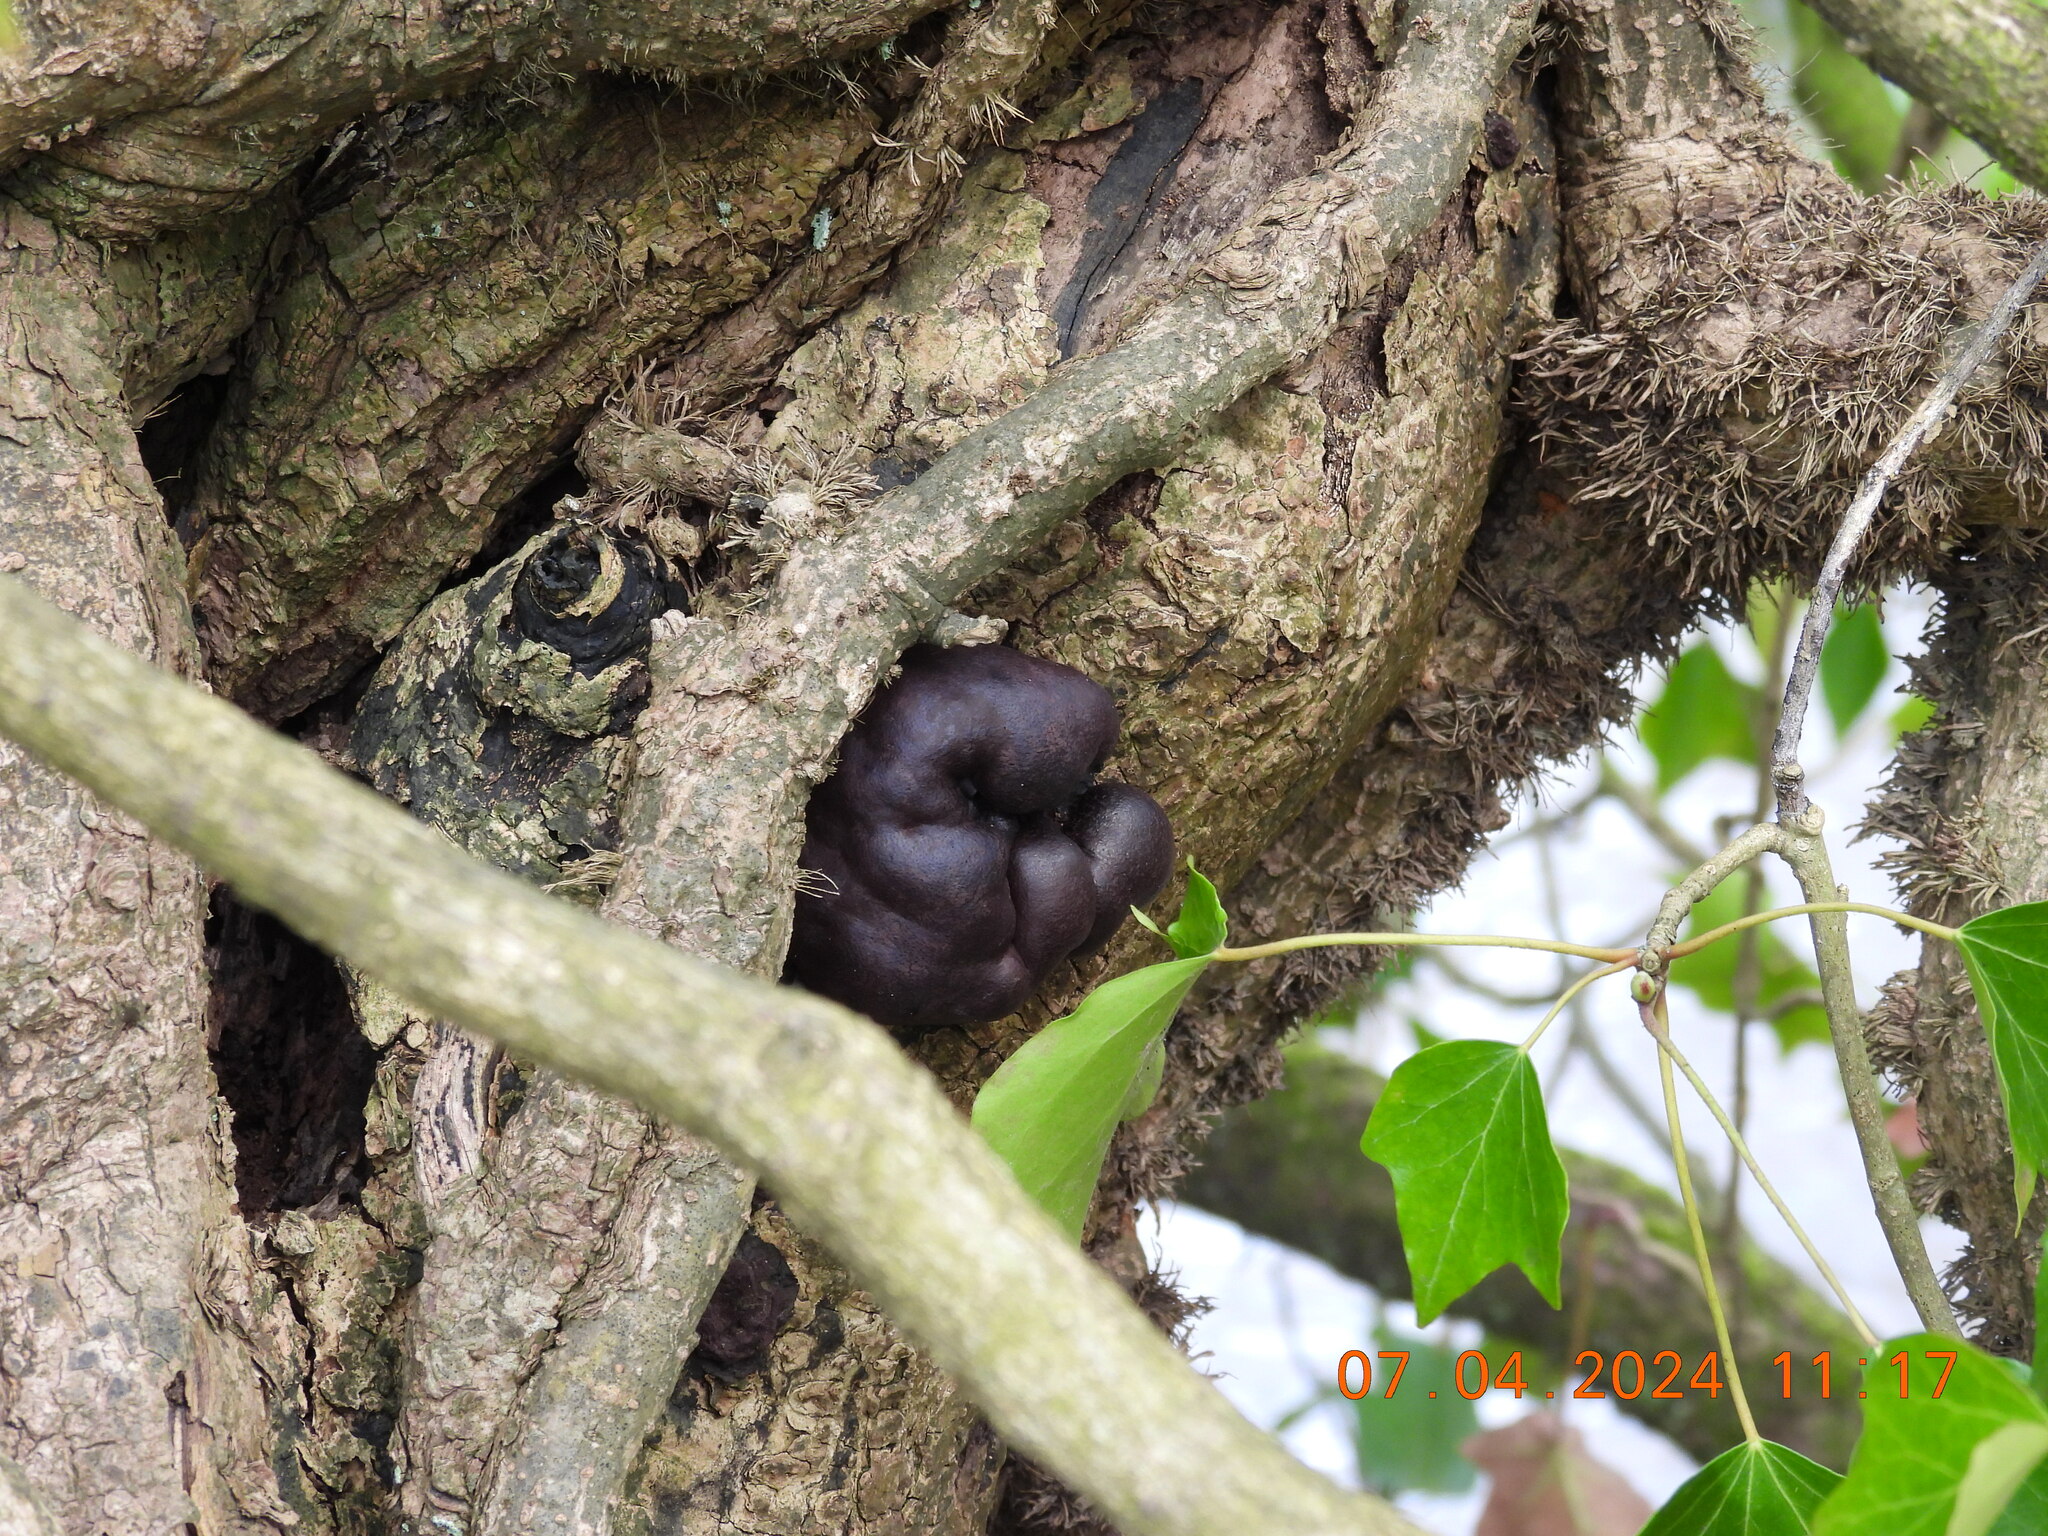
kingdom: Fungi
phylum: Ascomycota
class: Sordariomycetes
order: Xylariales
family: Hypoxylaceae
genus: Daldinia
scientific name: Daldinia concentrica
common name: Cramp balls
